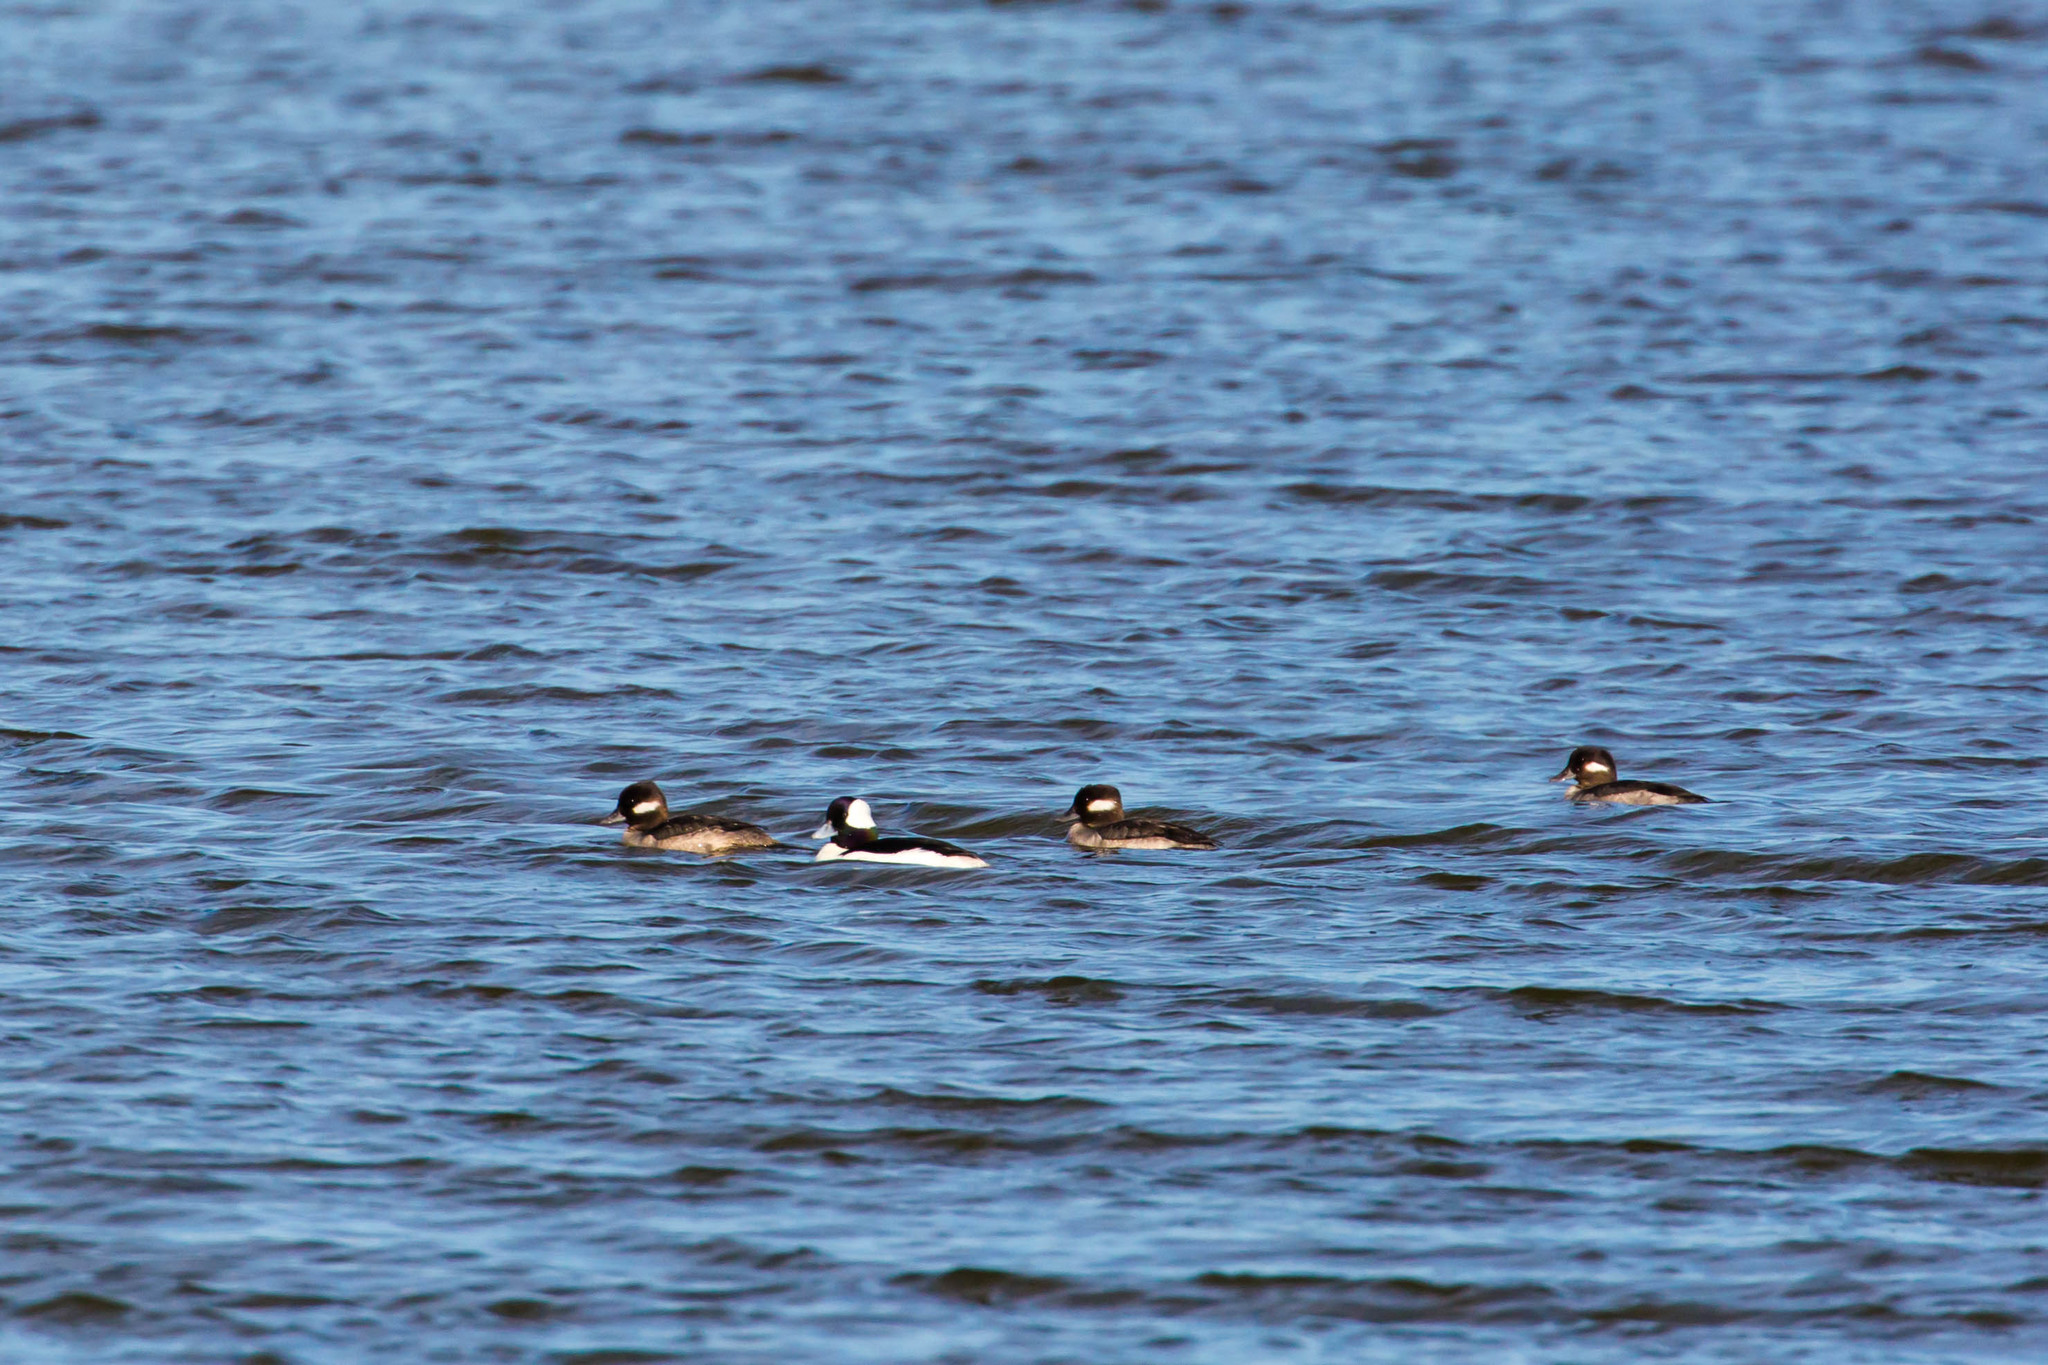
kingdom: Animalia
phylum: Chordata
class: Aves
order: Anseriformes
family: Anatidae
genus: Bucephala
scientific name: Bucephala albeola
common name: Bufflehead
